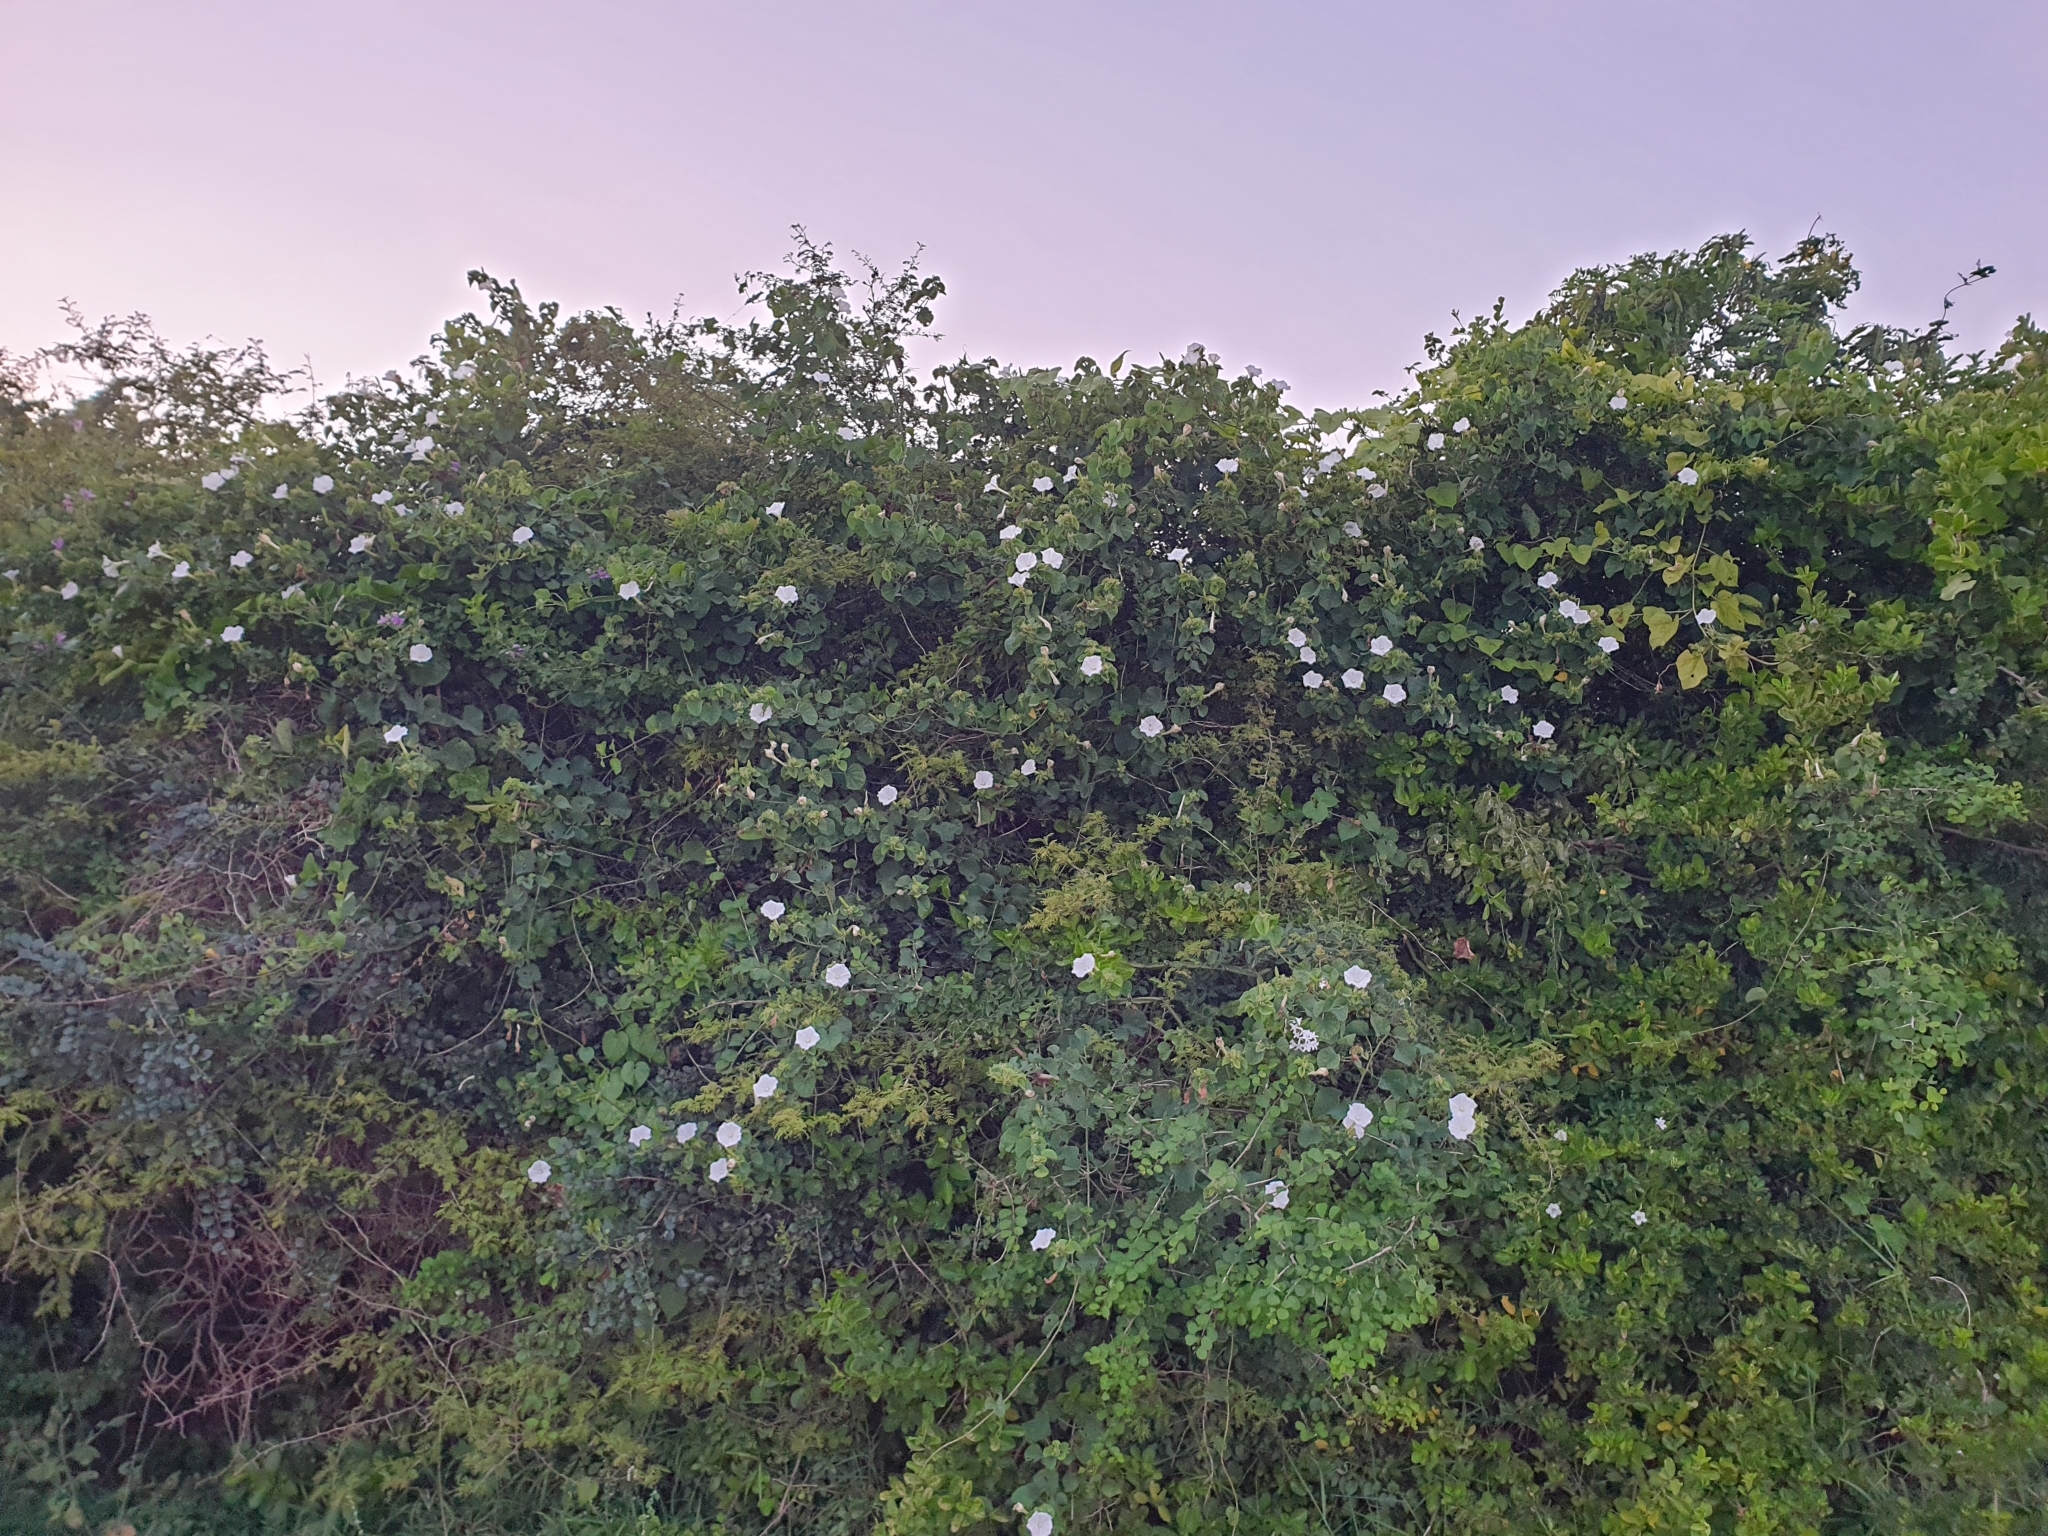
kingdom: Plantae
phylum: Tracheophyta
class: Magnoliopsida
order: Solanales
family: Convolvulaceae
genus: Rivea
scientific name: Rivea wightiana
